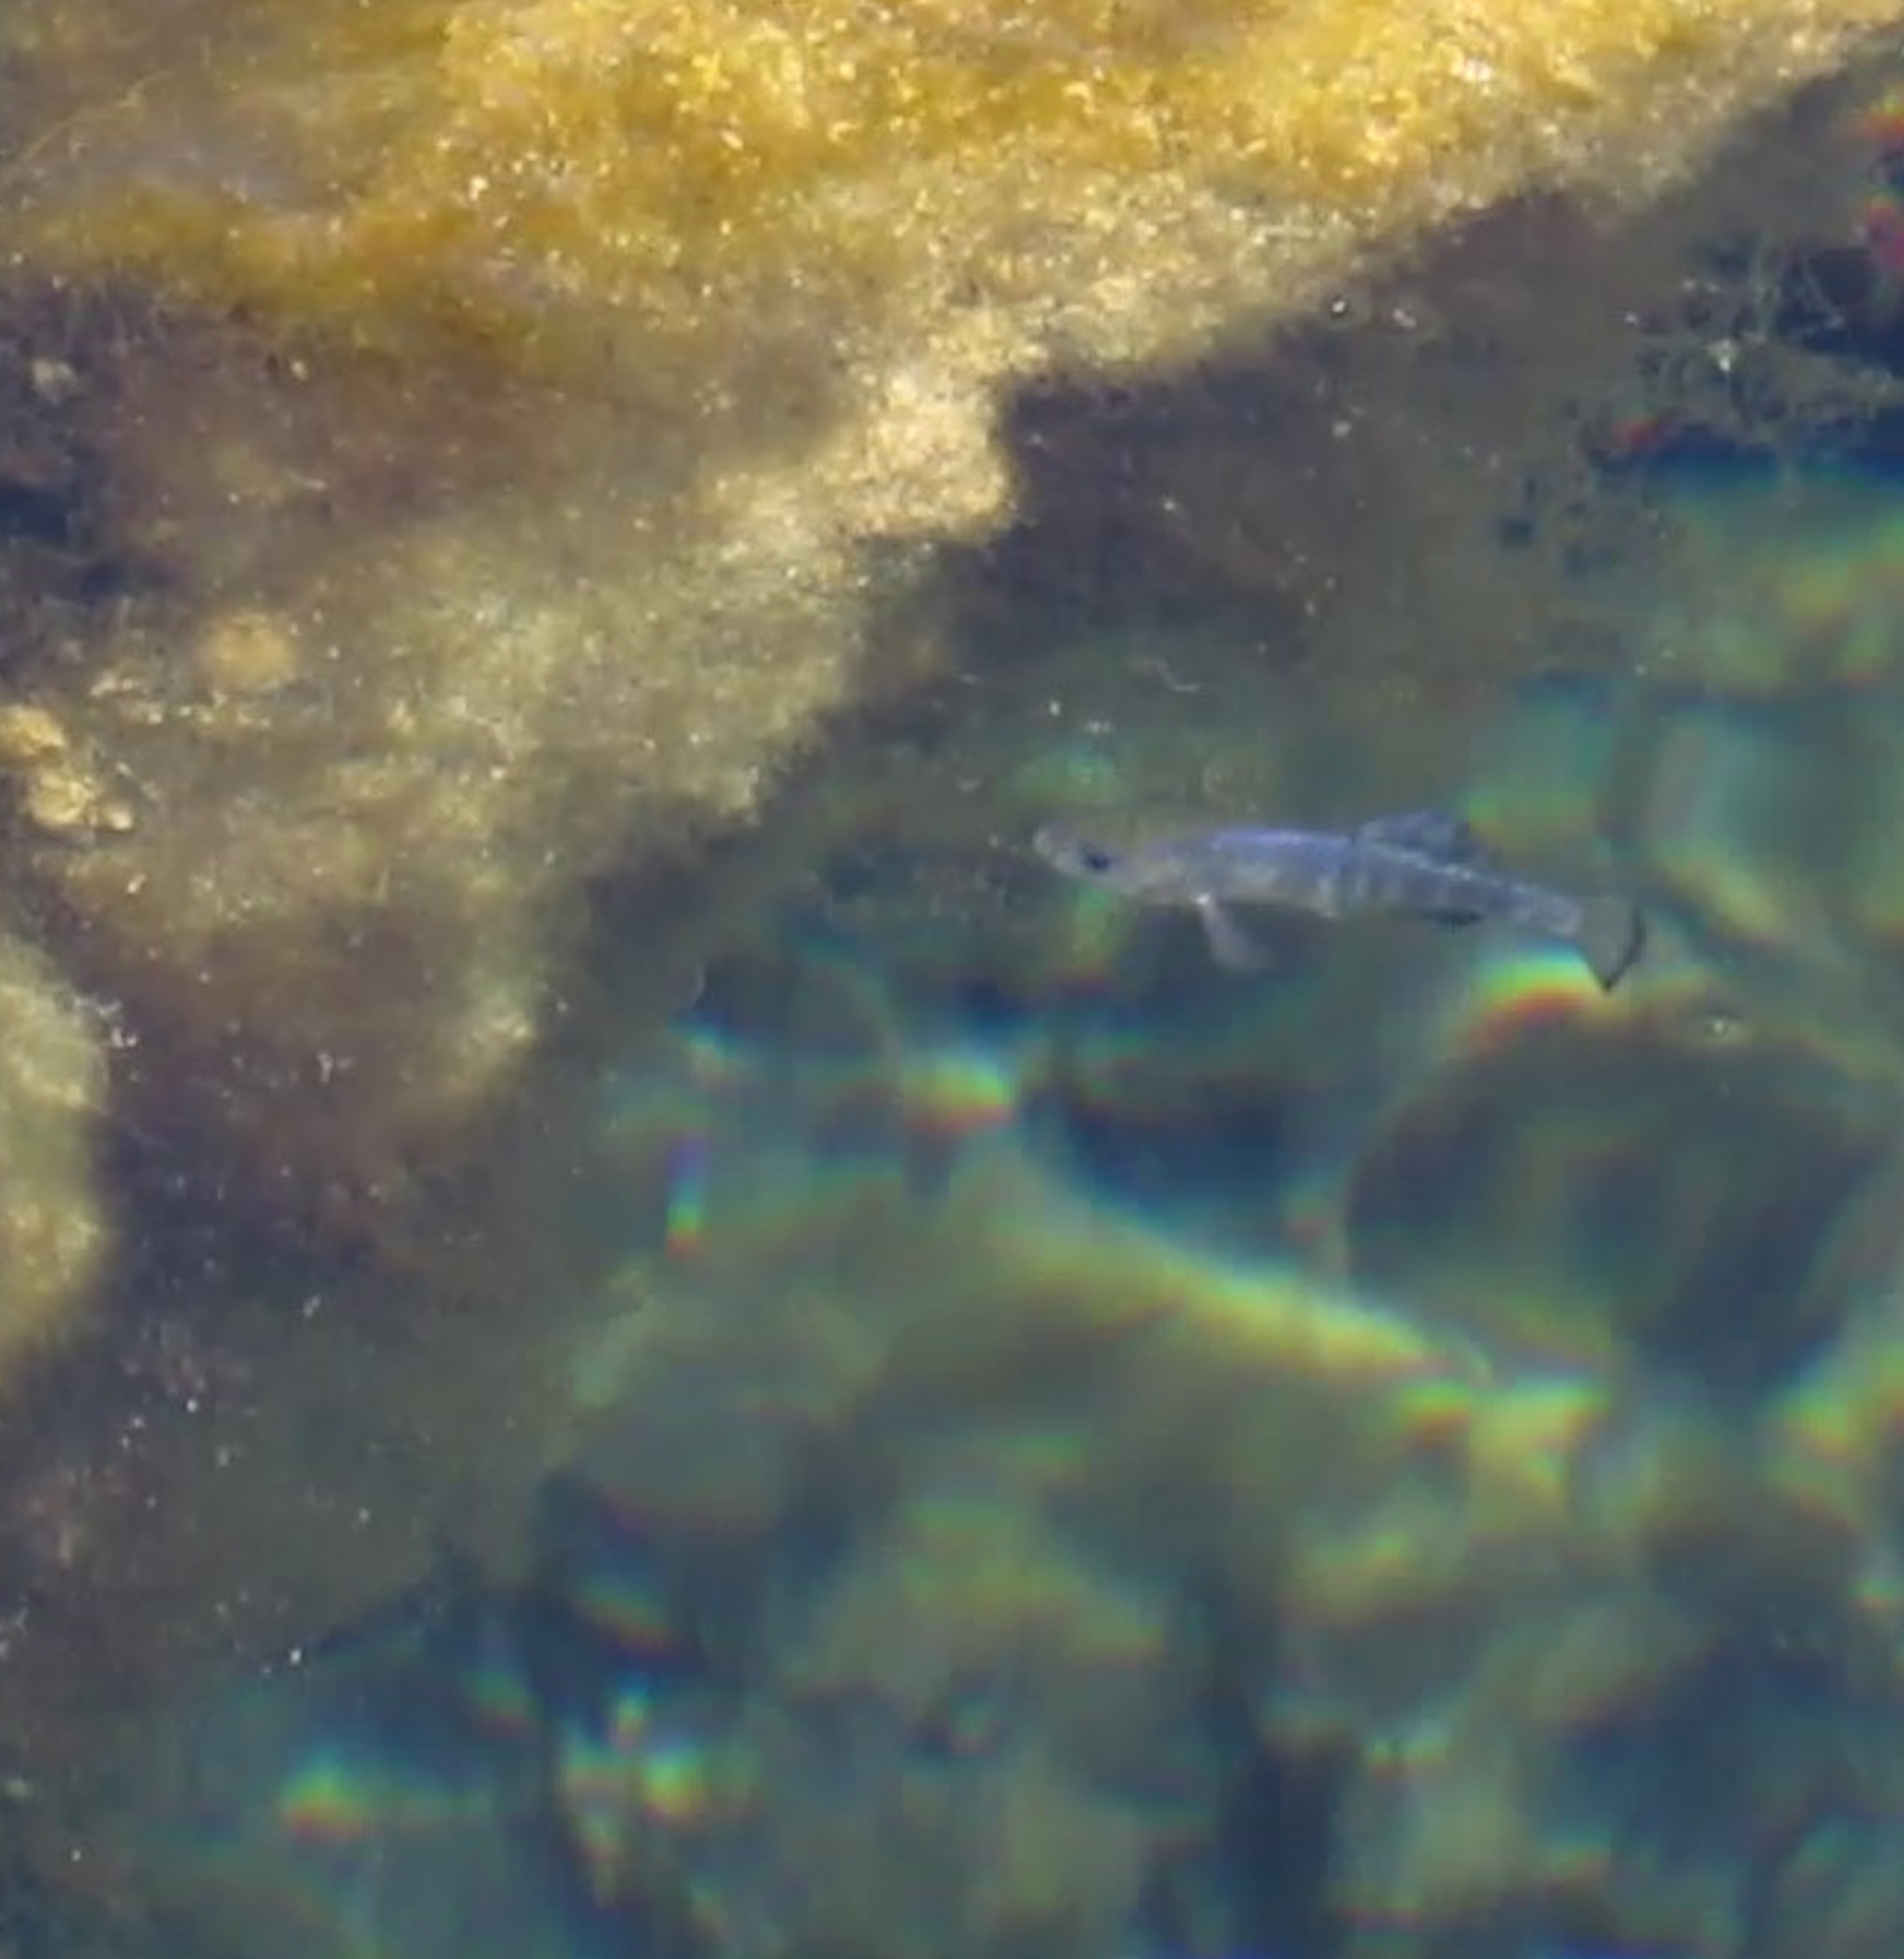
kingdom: Animalia
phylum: Chordata
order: Cyprinodontiformes
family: Cyprinodontidae
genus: Cyprinodon
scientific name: Cyprinodon nevadensis
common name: Amargosa pupfish
